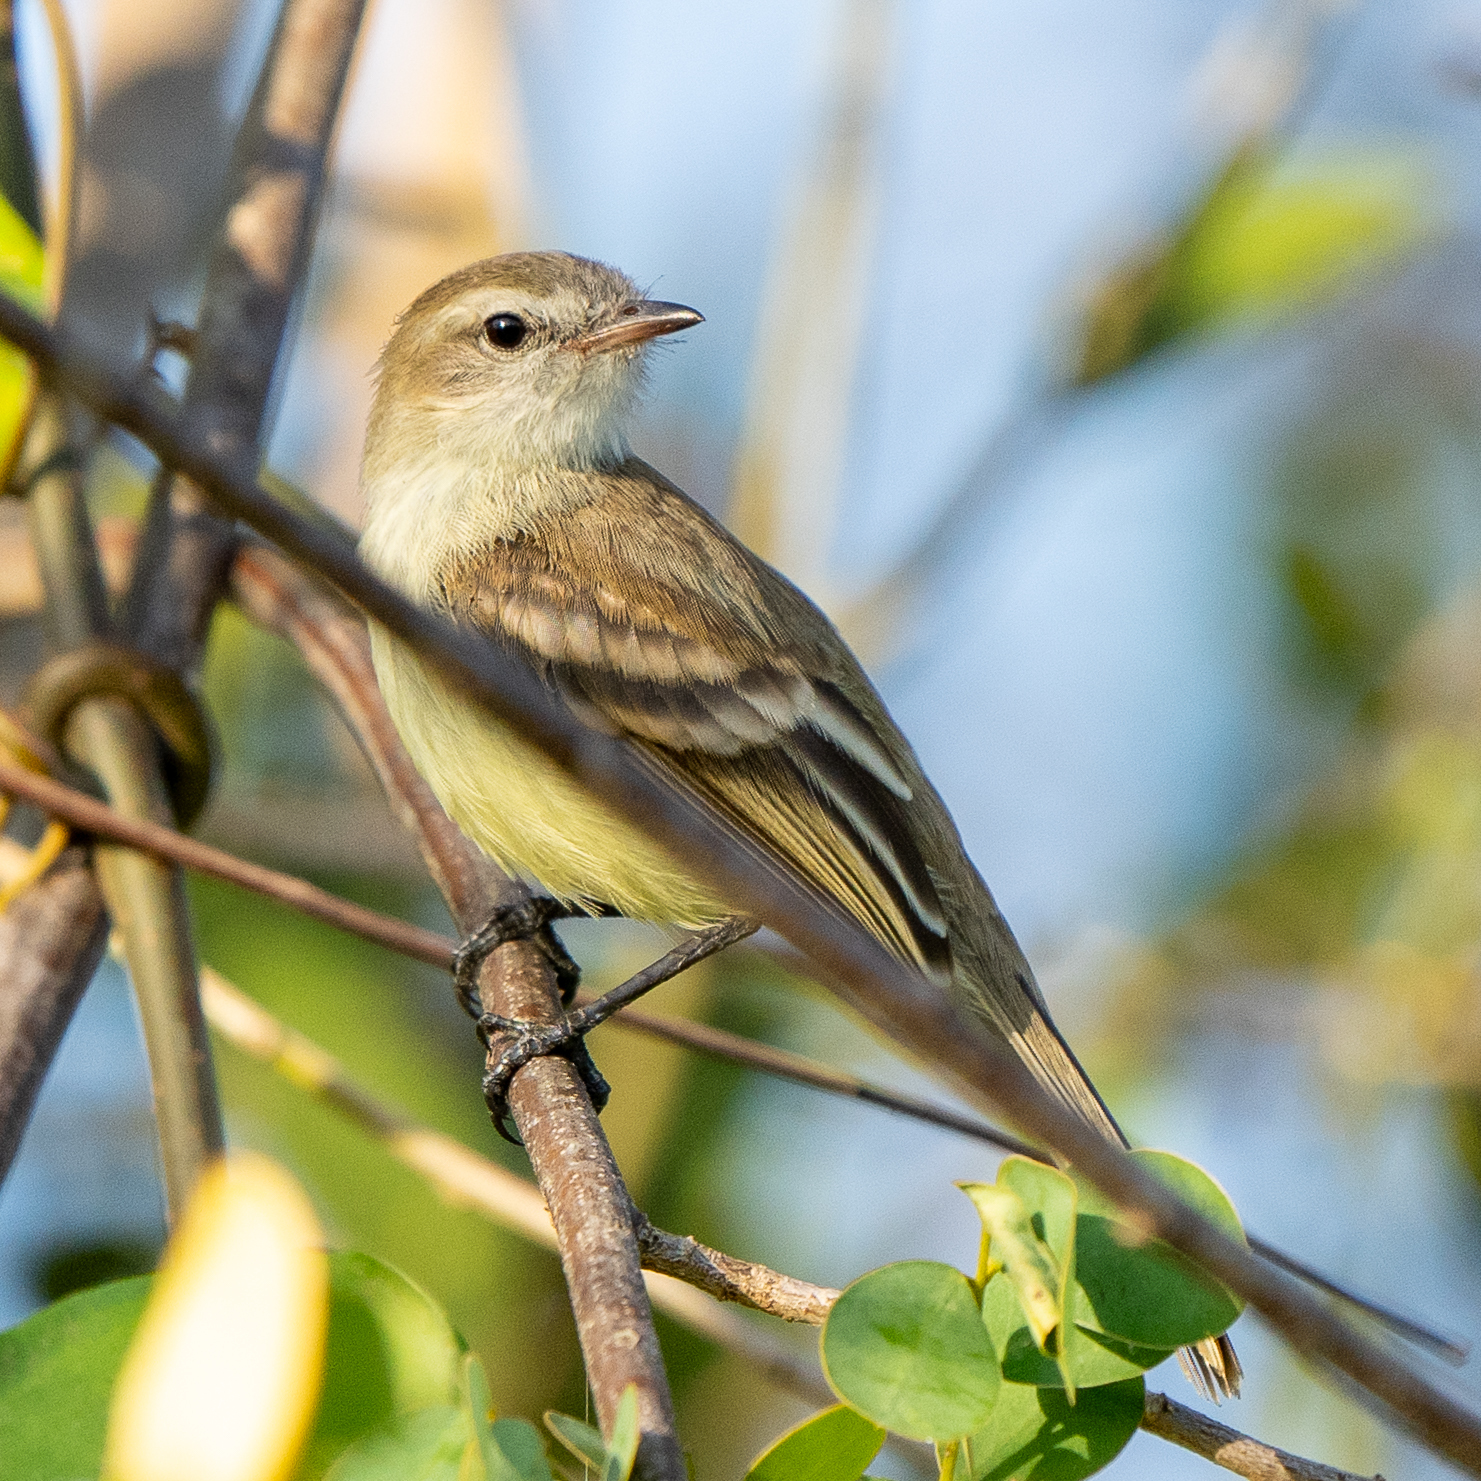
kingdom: Animalia
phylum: Chordata
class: Aves
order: Passeriformes
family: Tyrannidae
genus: Phaeomyias
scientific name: Phaeomyias murina
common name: Mouse-colored tyrannulet
